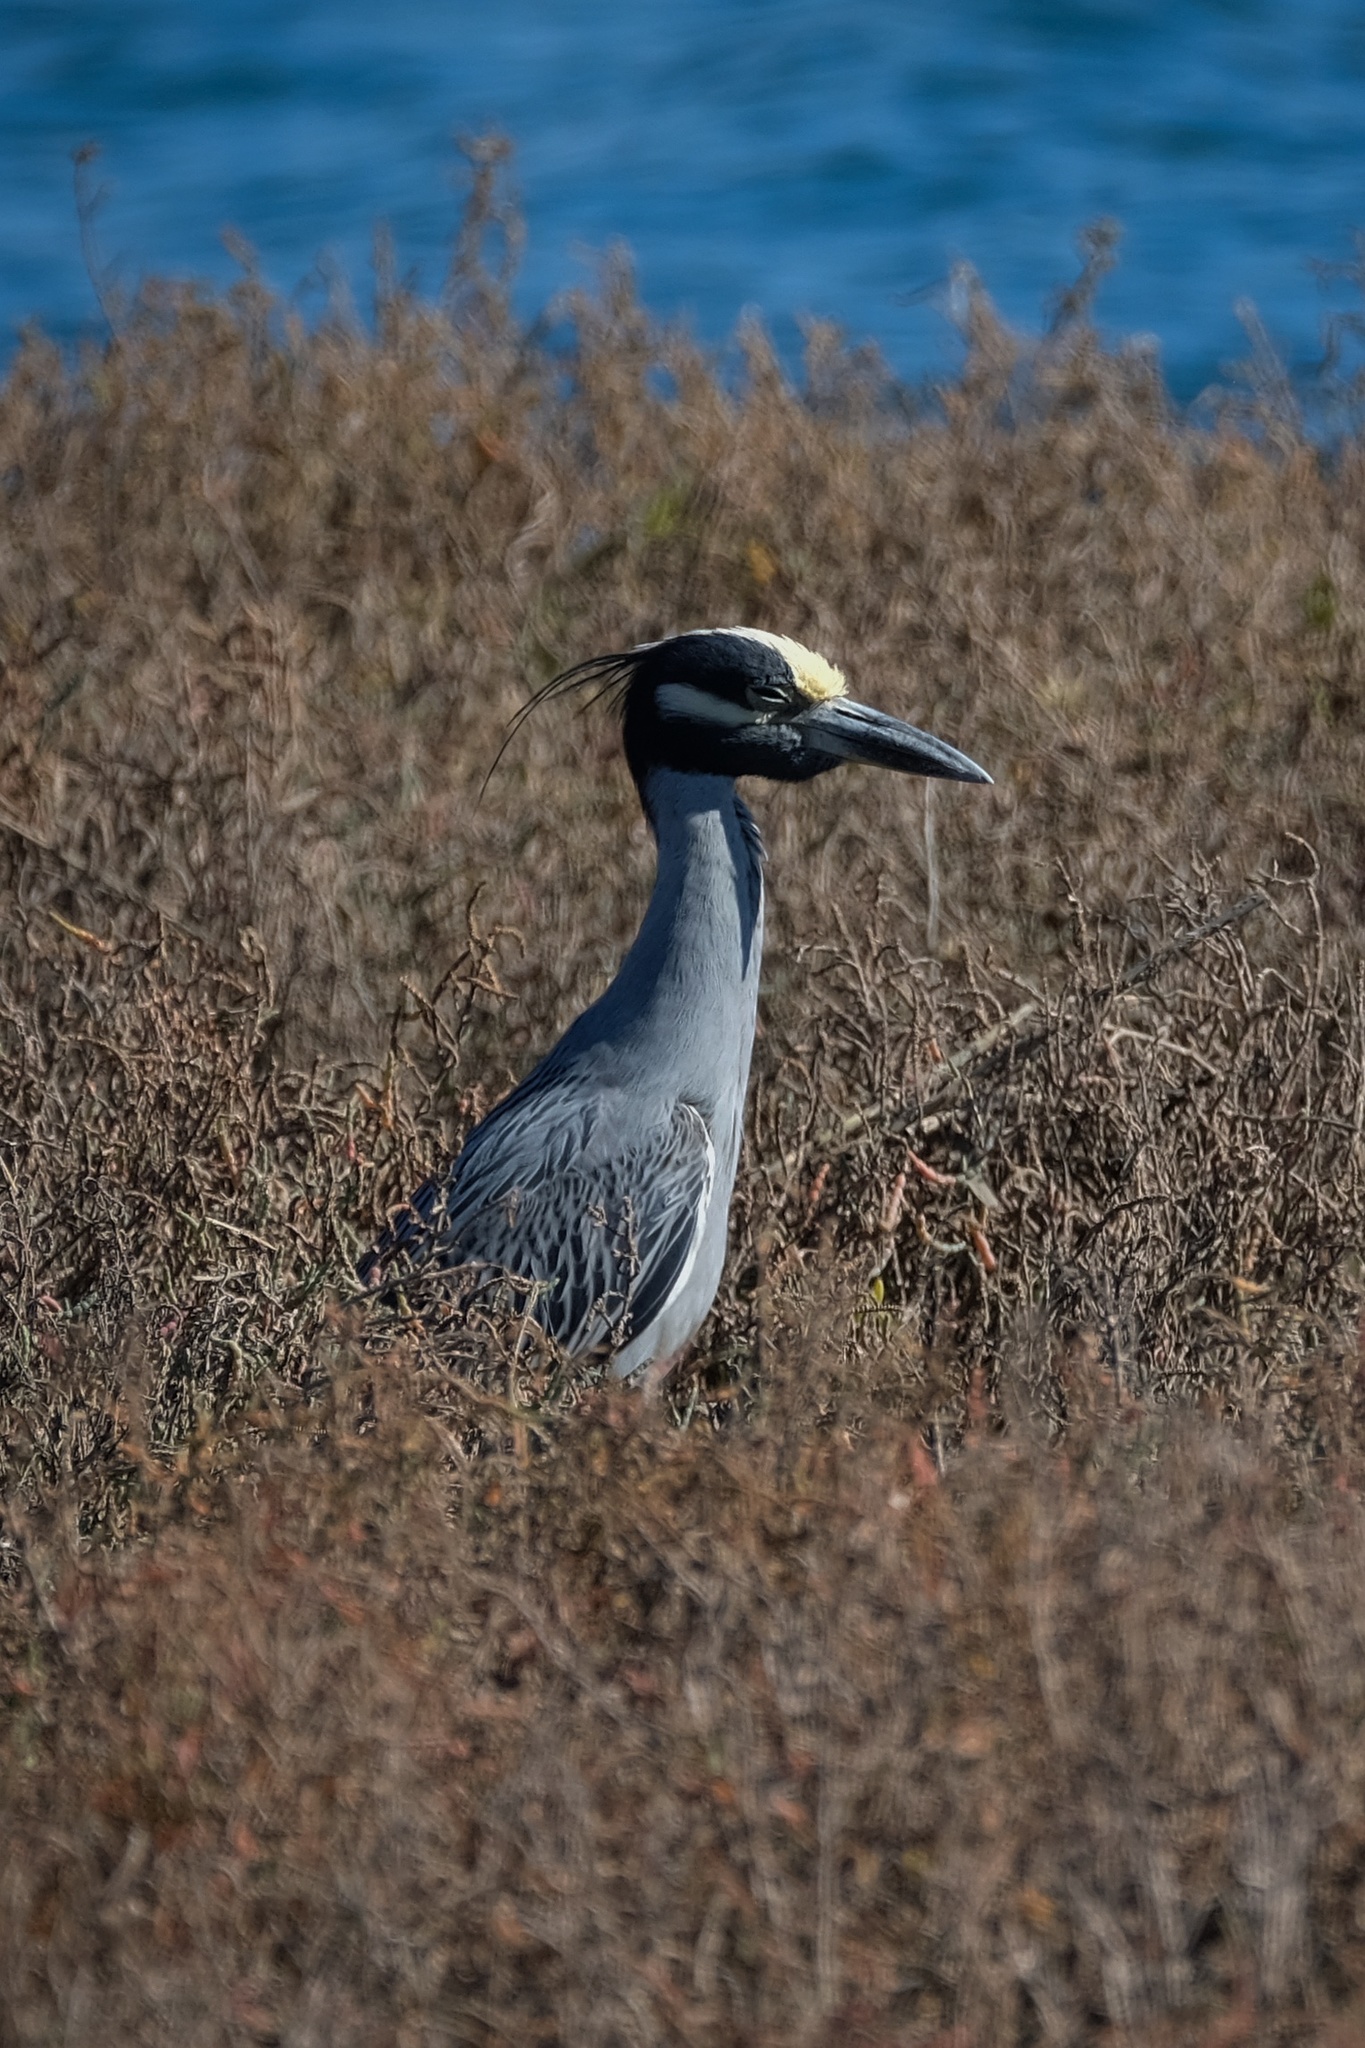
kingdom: Animalia
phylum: Chordata
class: Aves
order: Pelecaniformes
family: Ardeidae
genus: Nyctanassa
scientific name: Nyctanassa violacea
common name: Yellow-crowned night heron
